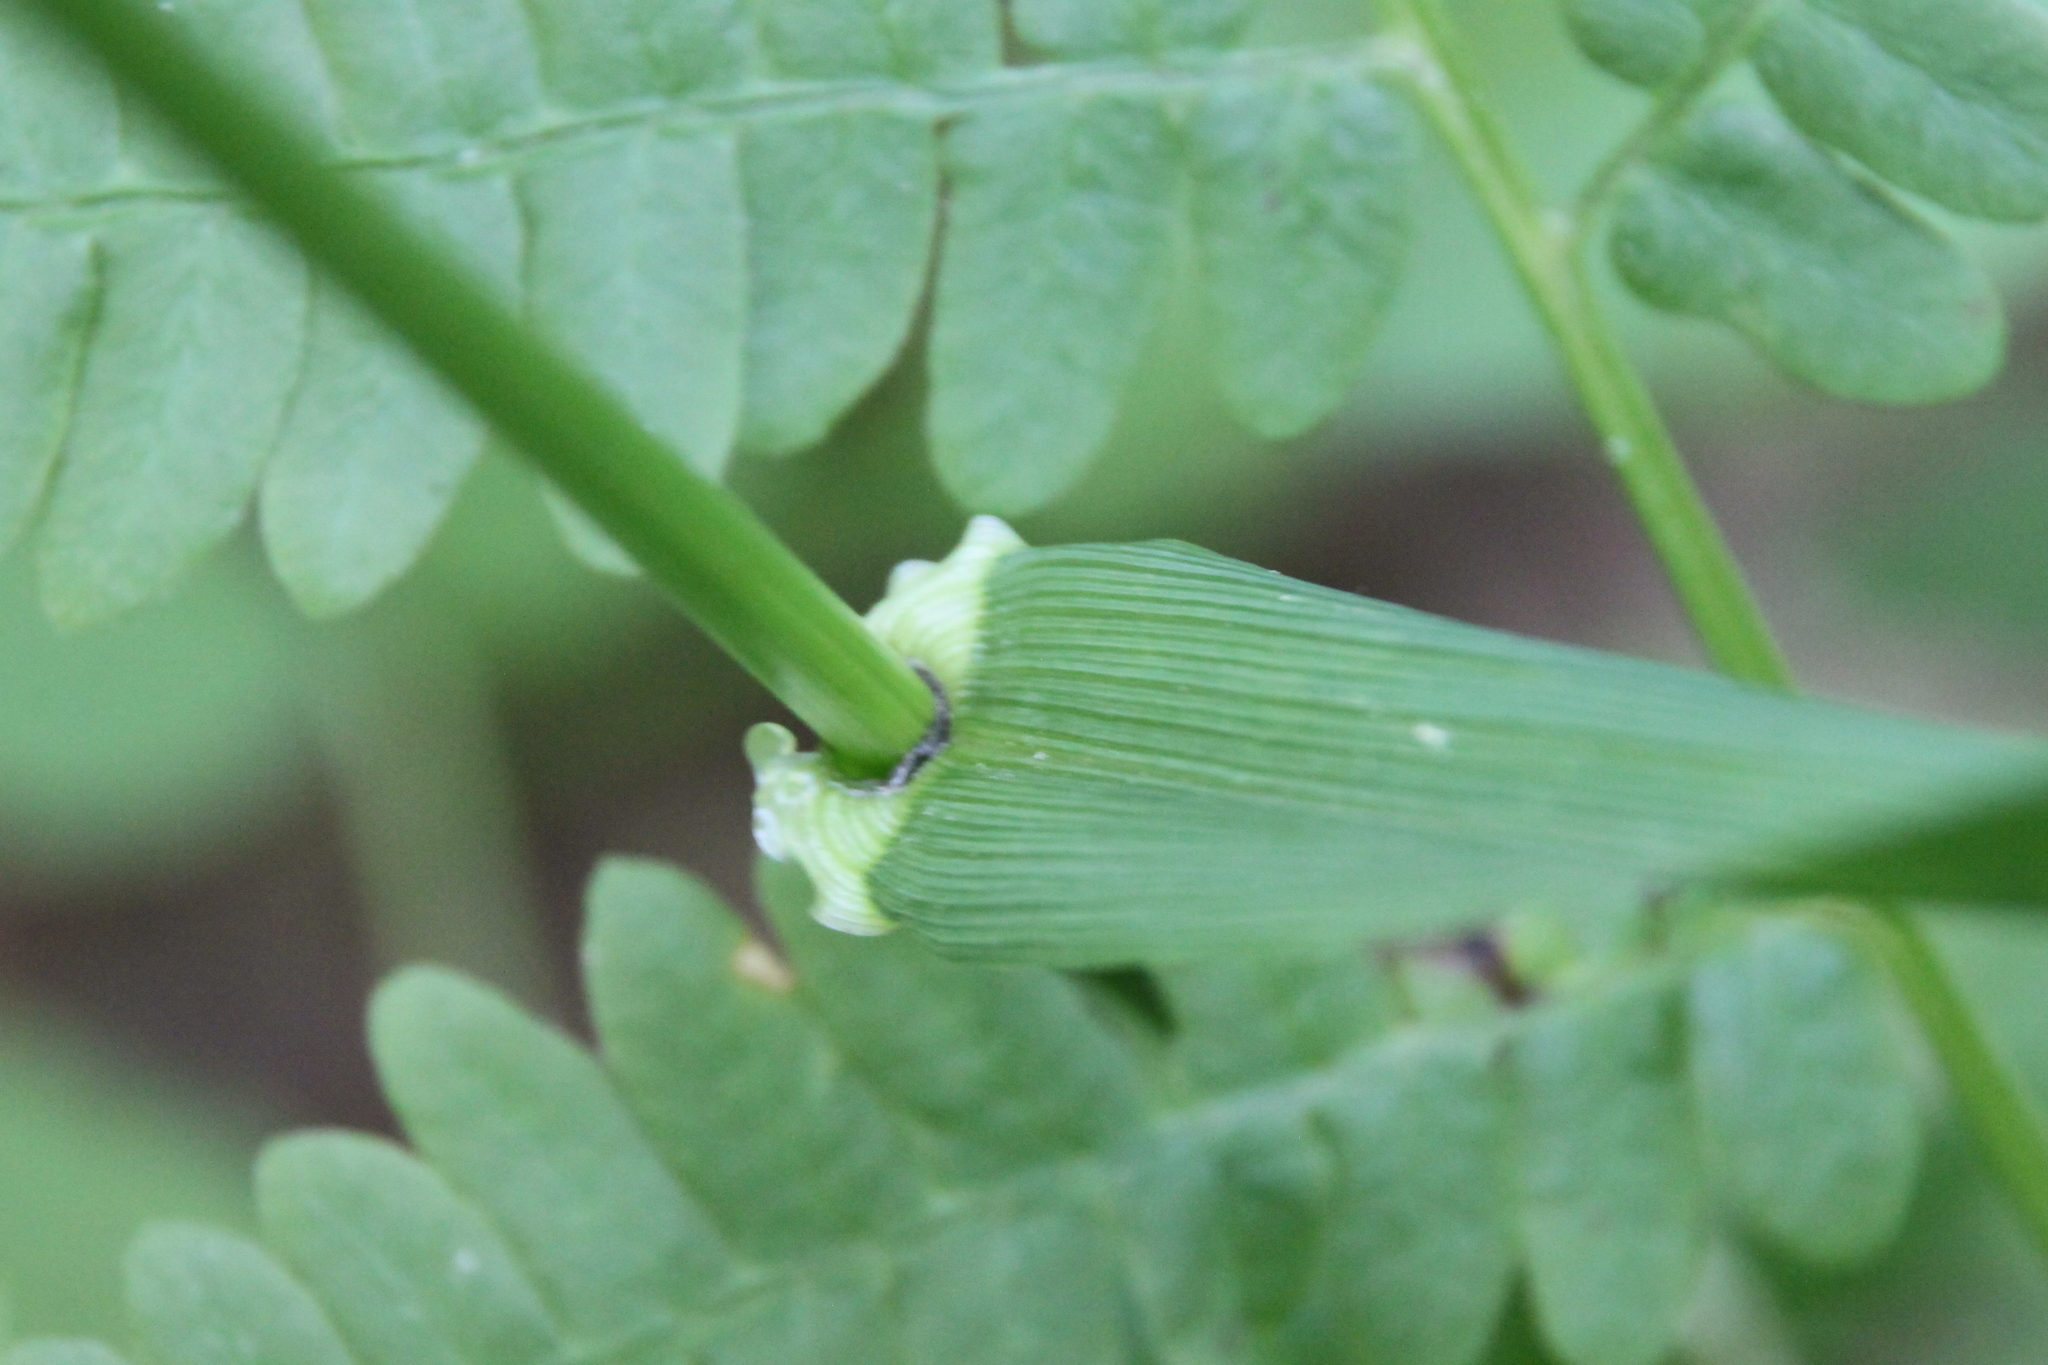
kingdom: Plantae
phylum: Tracheophyta
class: Liliopsida
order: Poales
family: Poaceae
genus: Lolium
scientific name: Lolium giganteum
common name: Giant fescue
